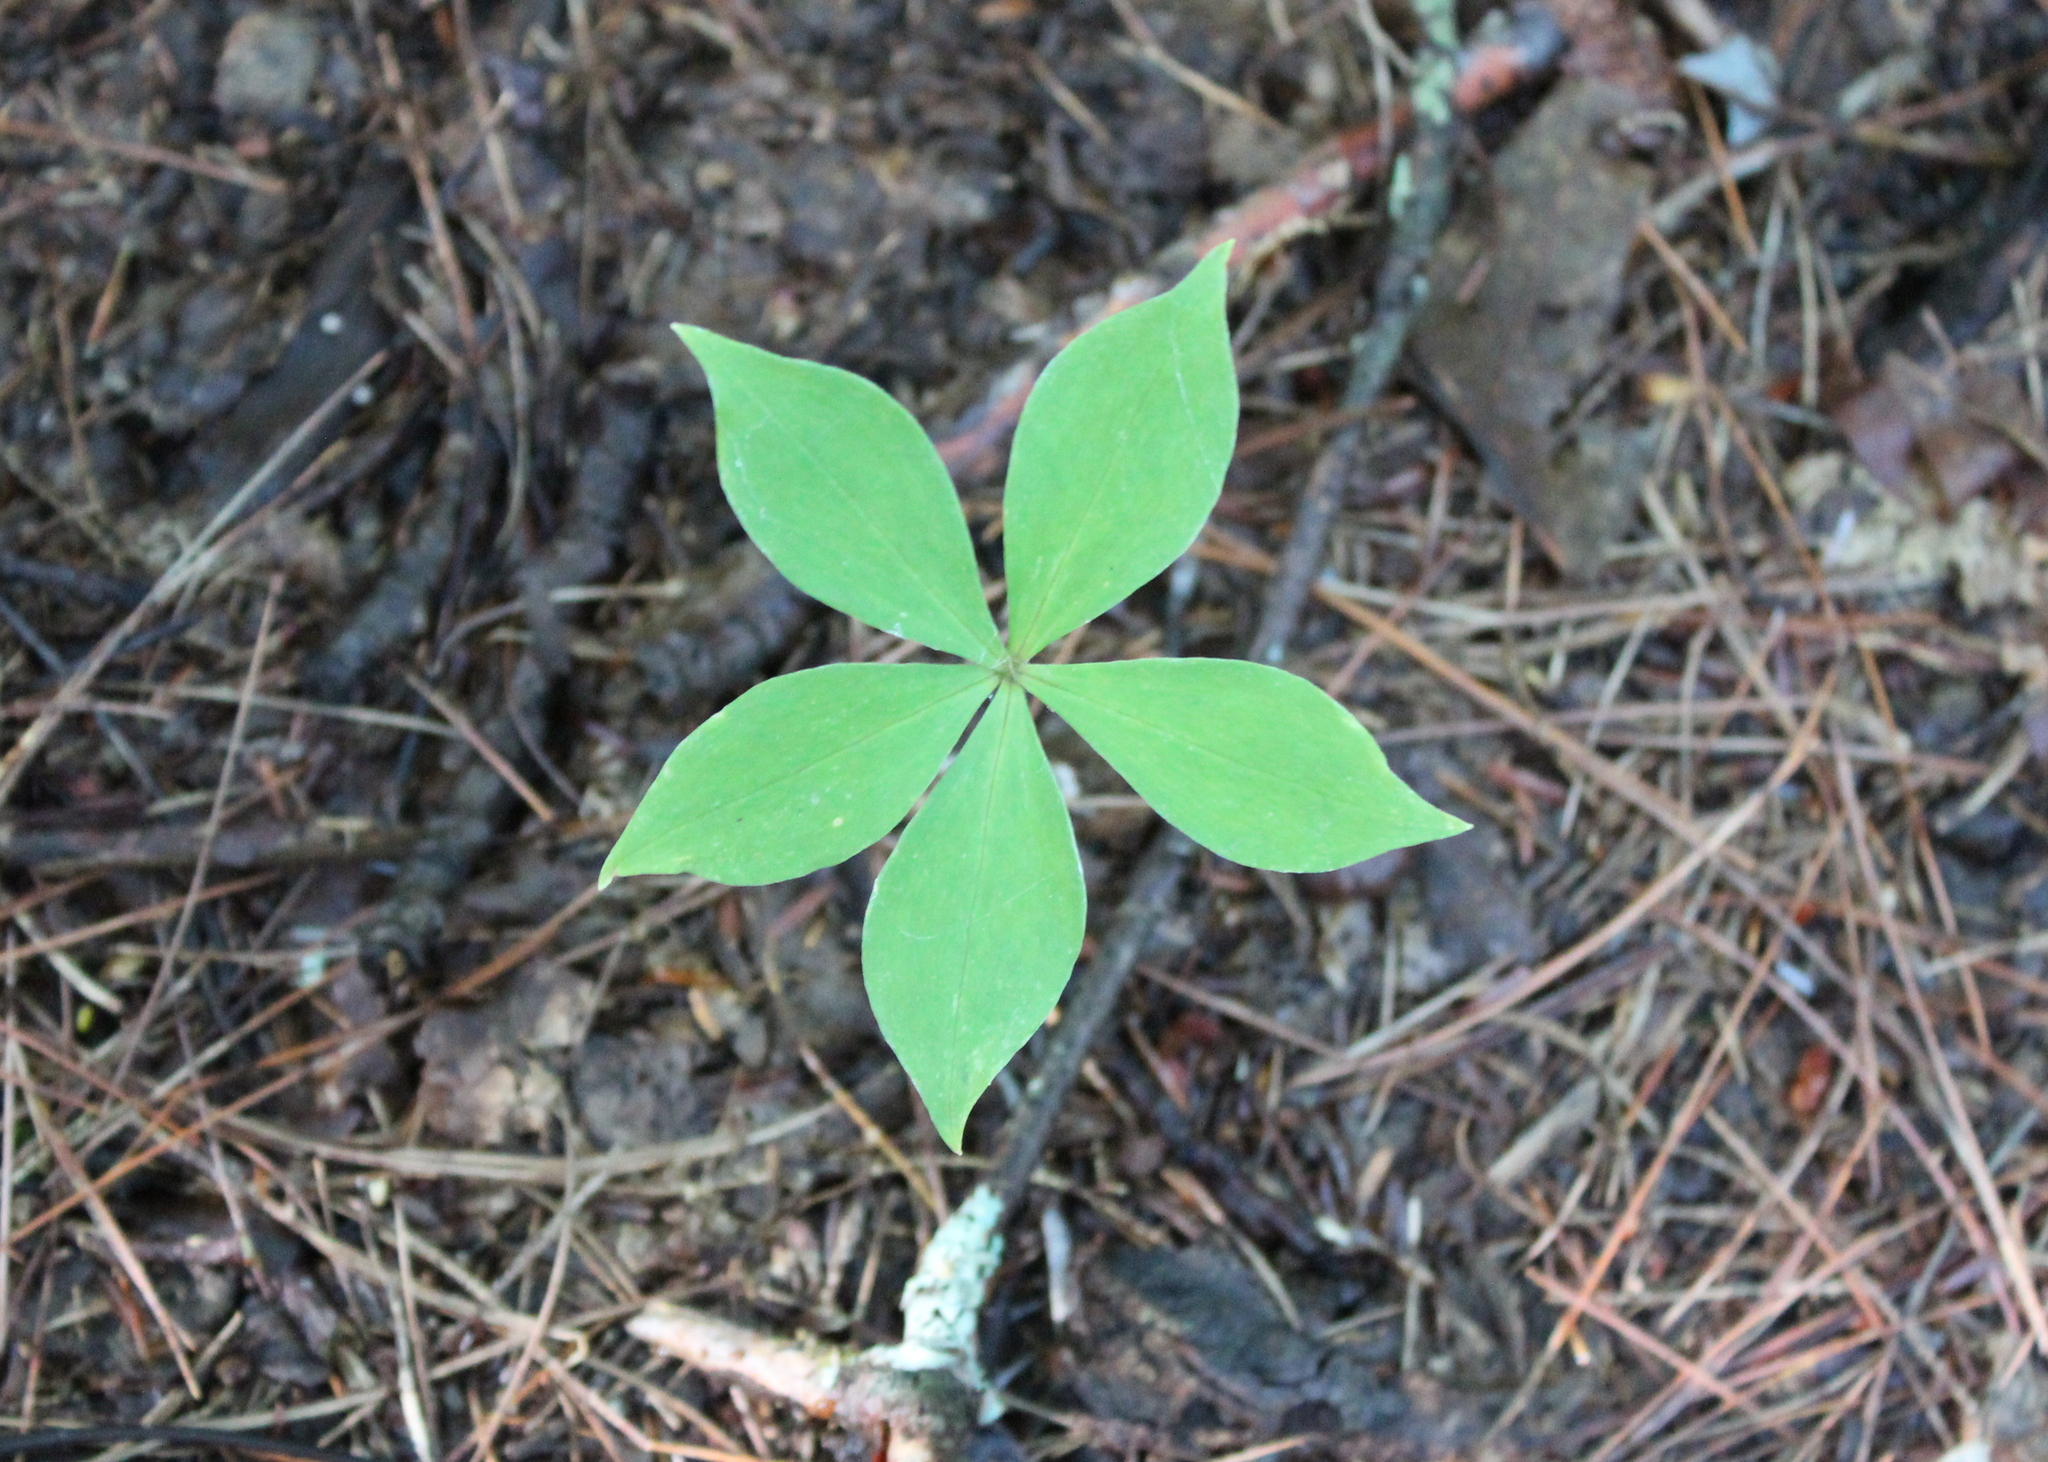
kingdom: Plantae
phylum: Tracheophyta
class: Liliopsida
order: Liliales
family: Liliaceae
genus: Medeola
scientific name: Medeola virginiana
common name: Indian cucumber-root
